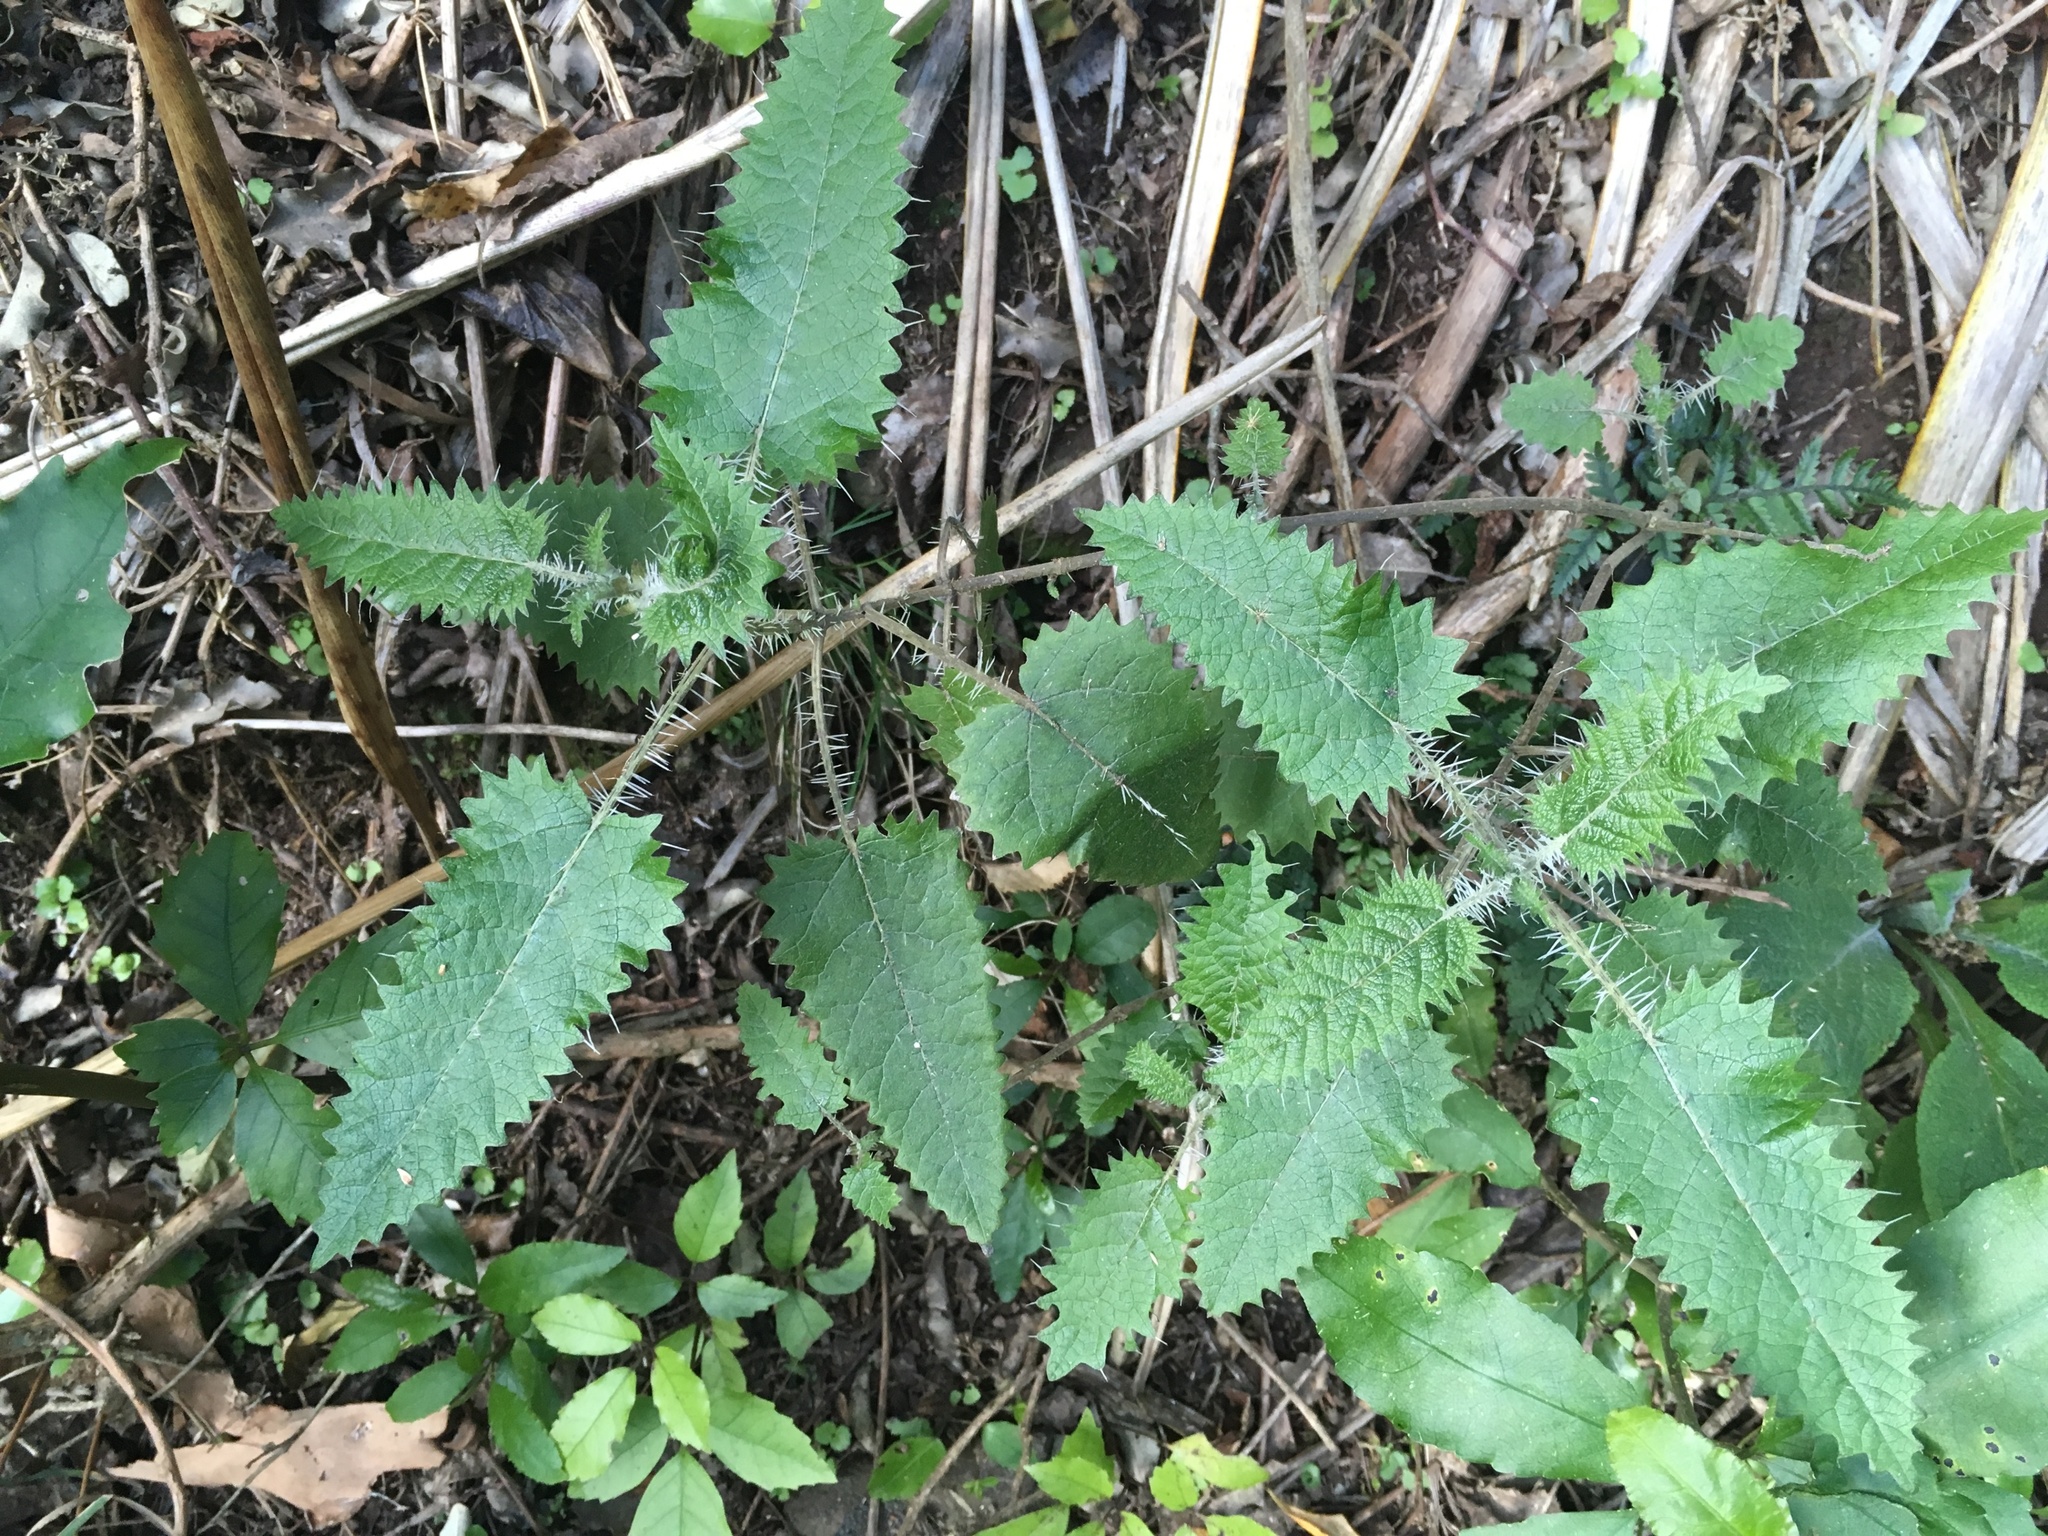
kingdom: Plantae
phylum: Tracheophyta
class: Magnoliopsida
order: Rosales
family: Urticaceae
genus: Urtica
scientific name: Urtica ferox
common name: Tree nettle
